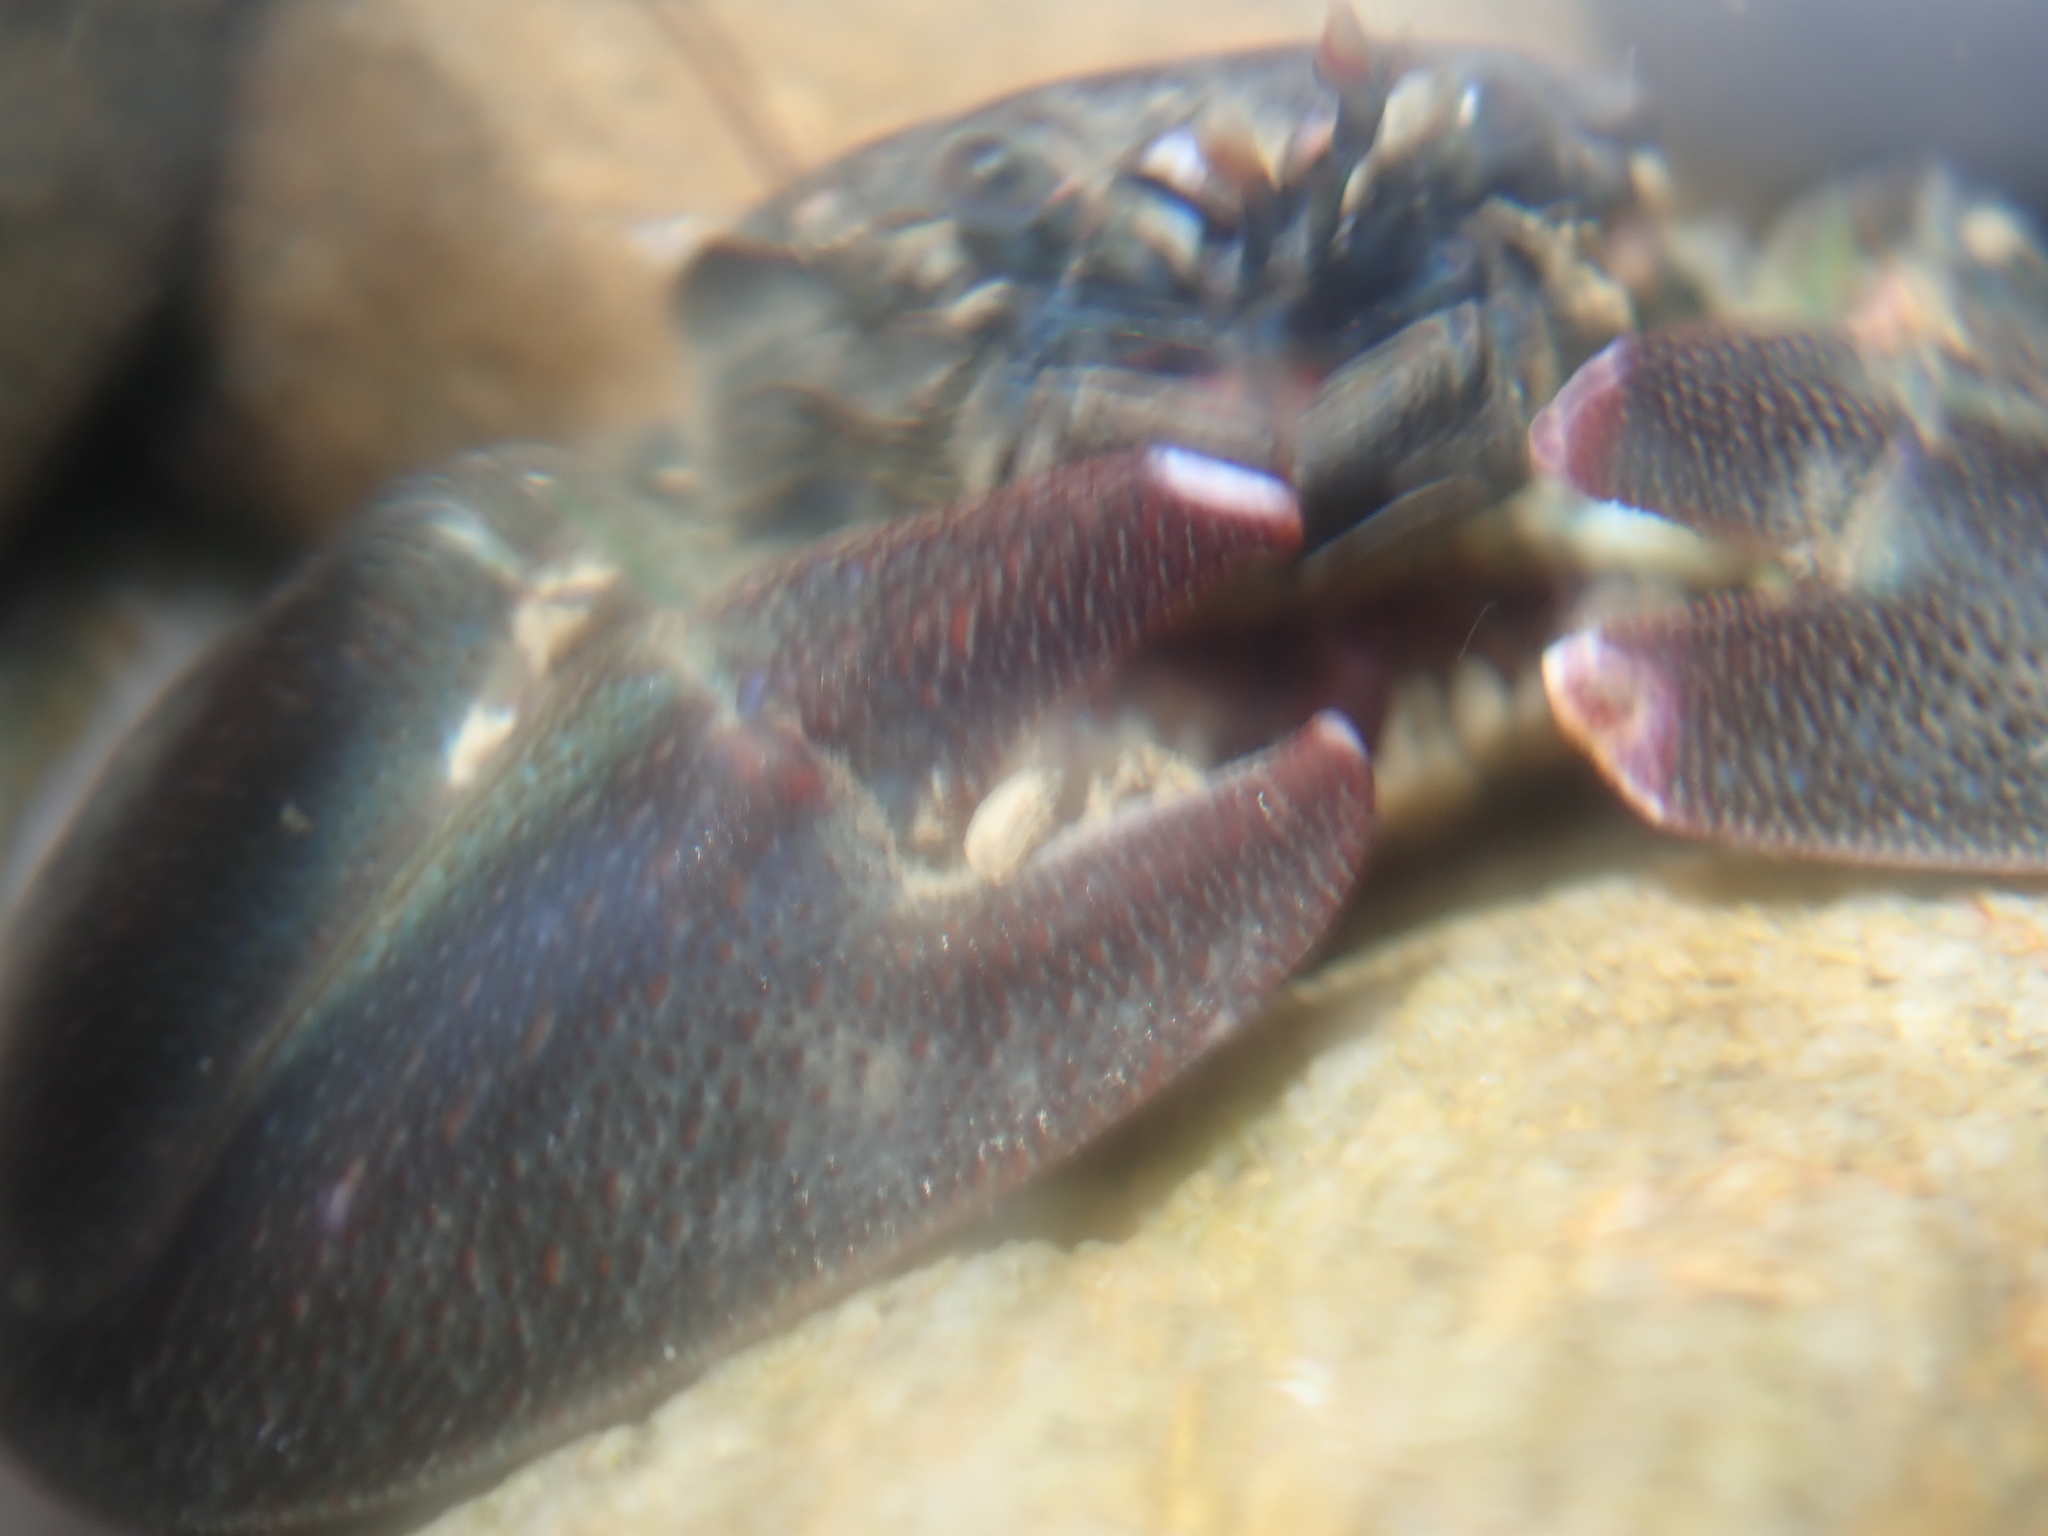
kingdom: Animalia
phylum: Arthropoda
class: Malacostraca
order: Decapoda
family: Porcellanidae
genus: Petrolisthes
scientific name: Petrolisthes elongatus
